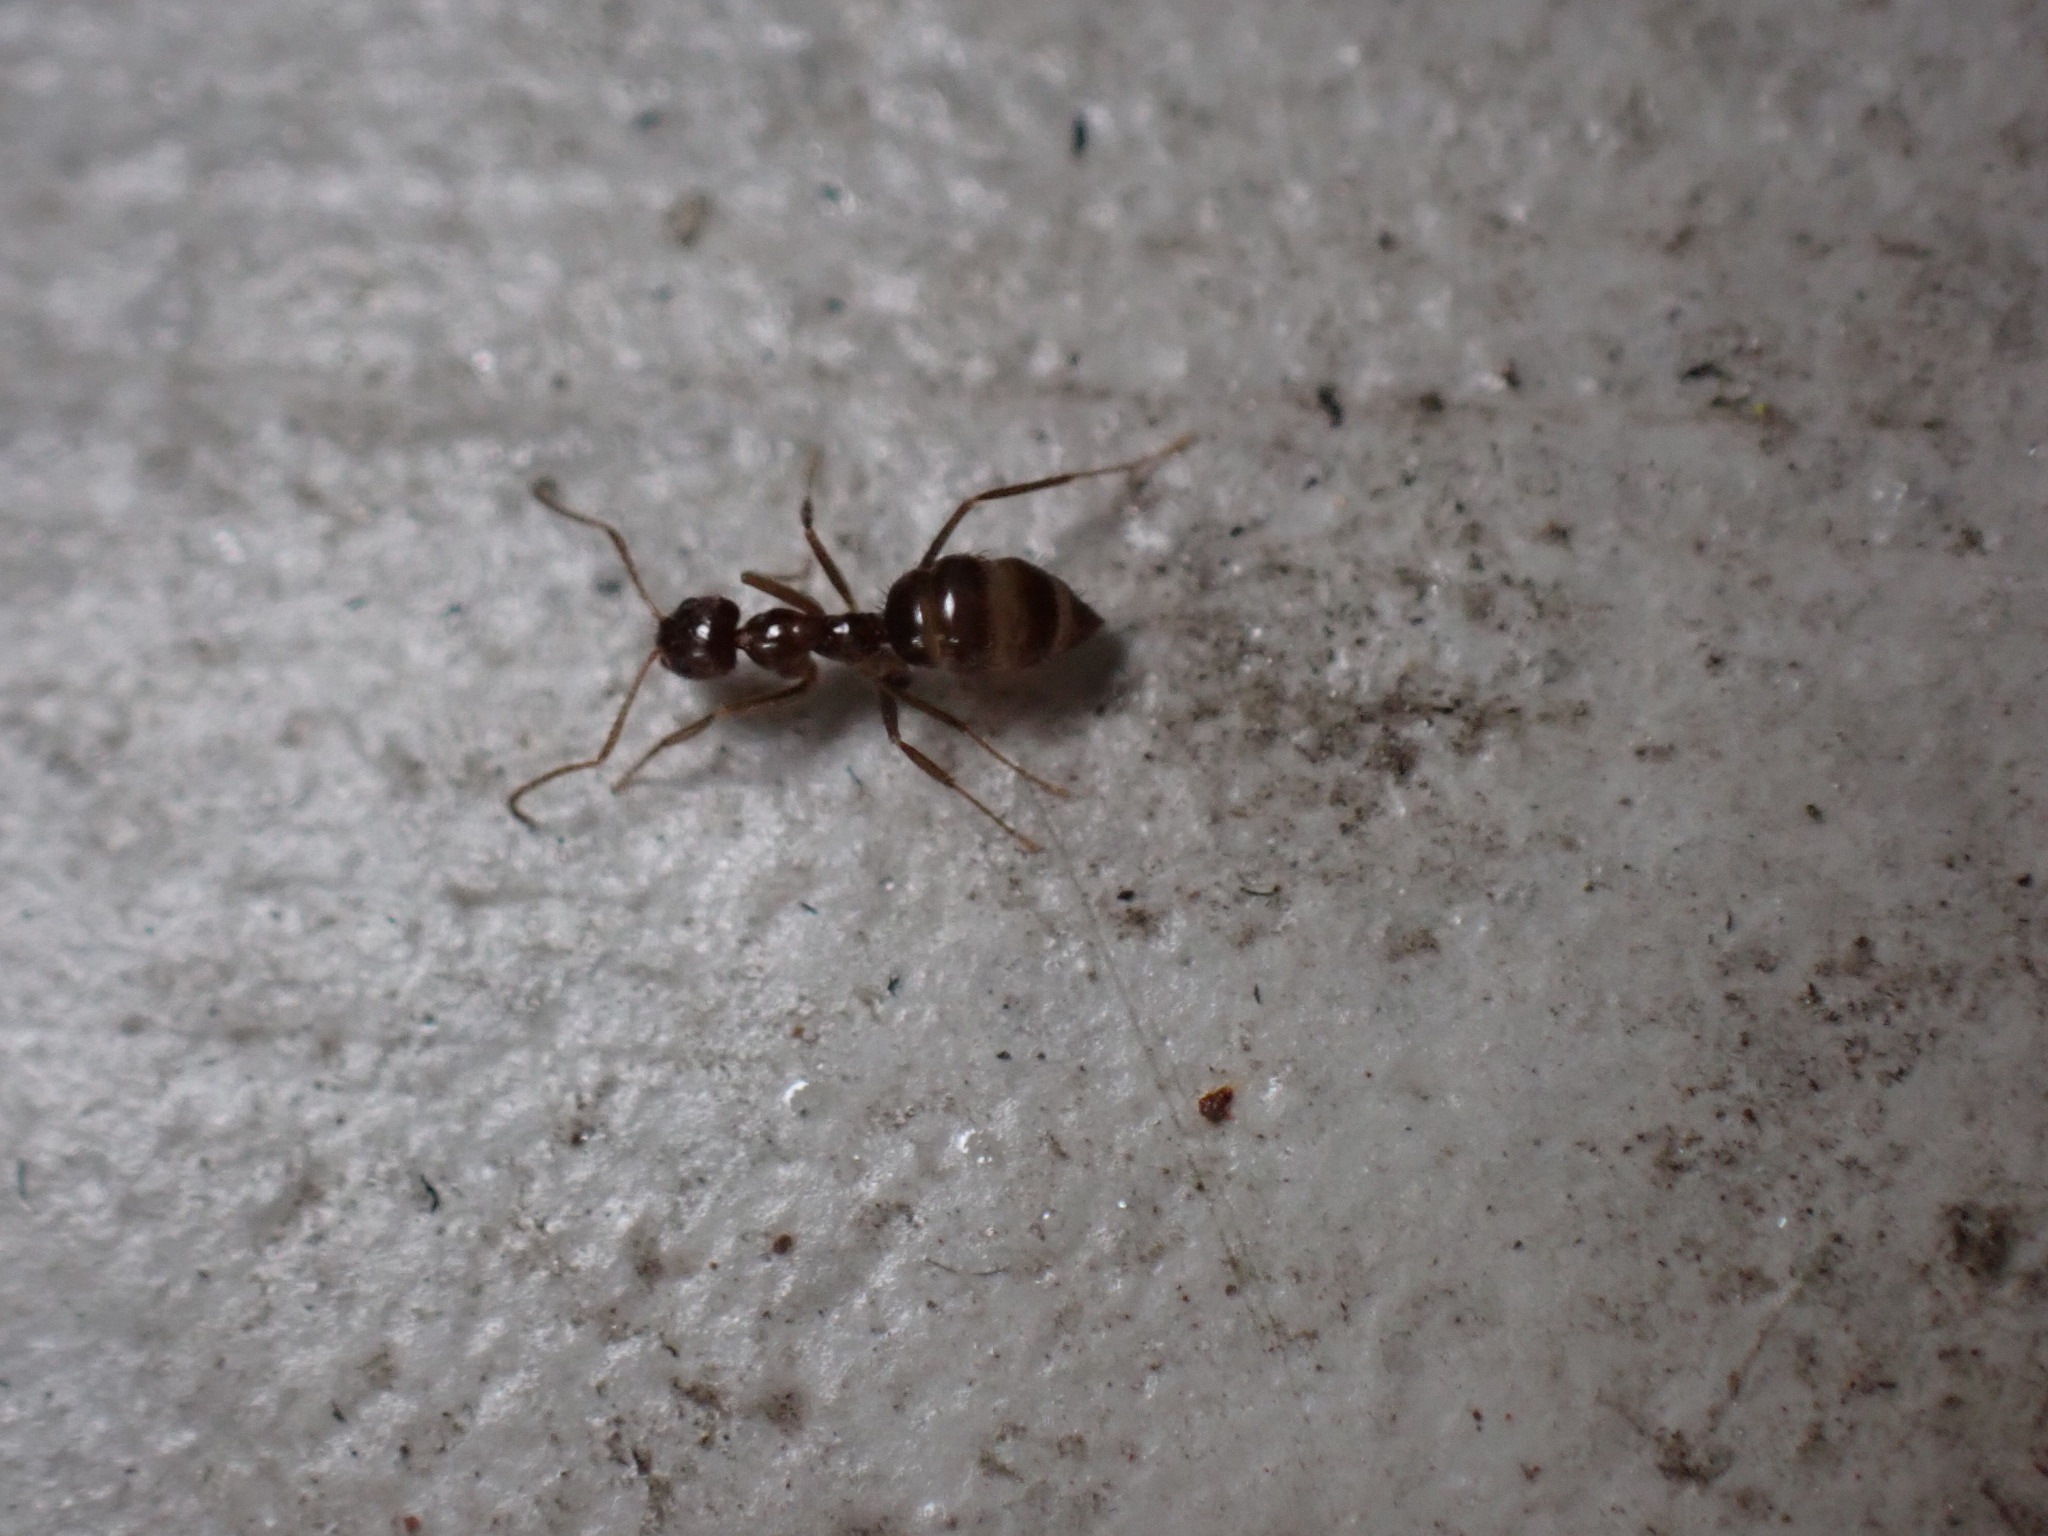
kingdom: Animalia
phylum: Arthropoda
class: Insecta
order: Hymenoptera
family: Formicidae
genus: Nylanderia
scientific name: Nylanderia amia
